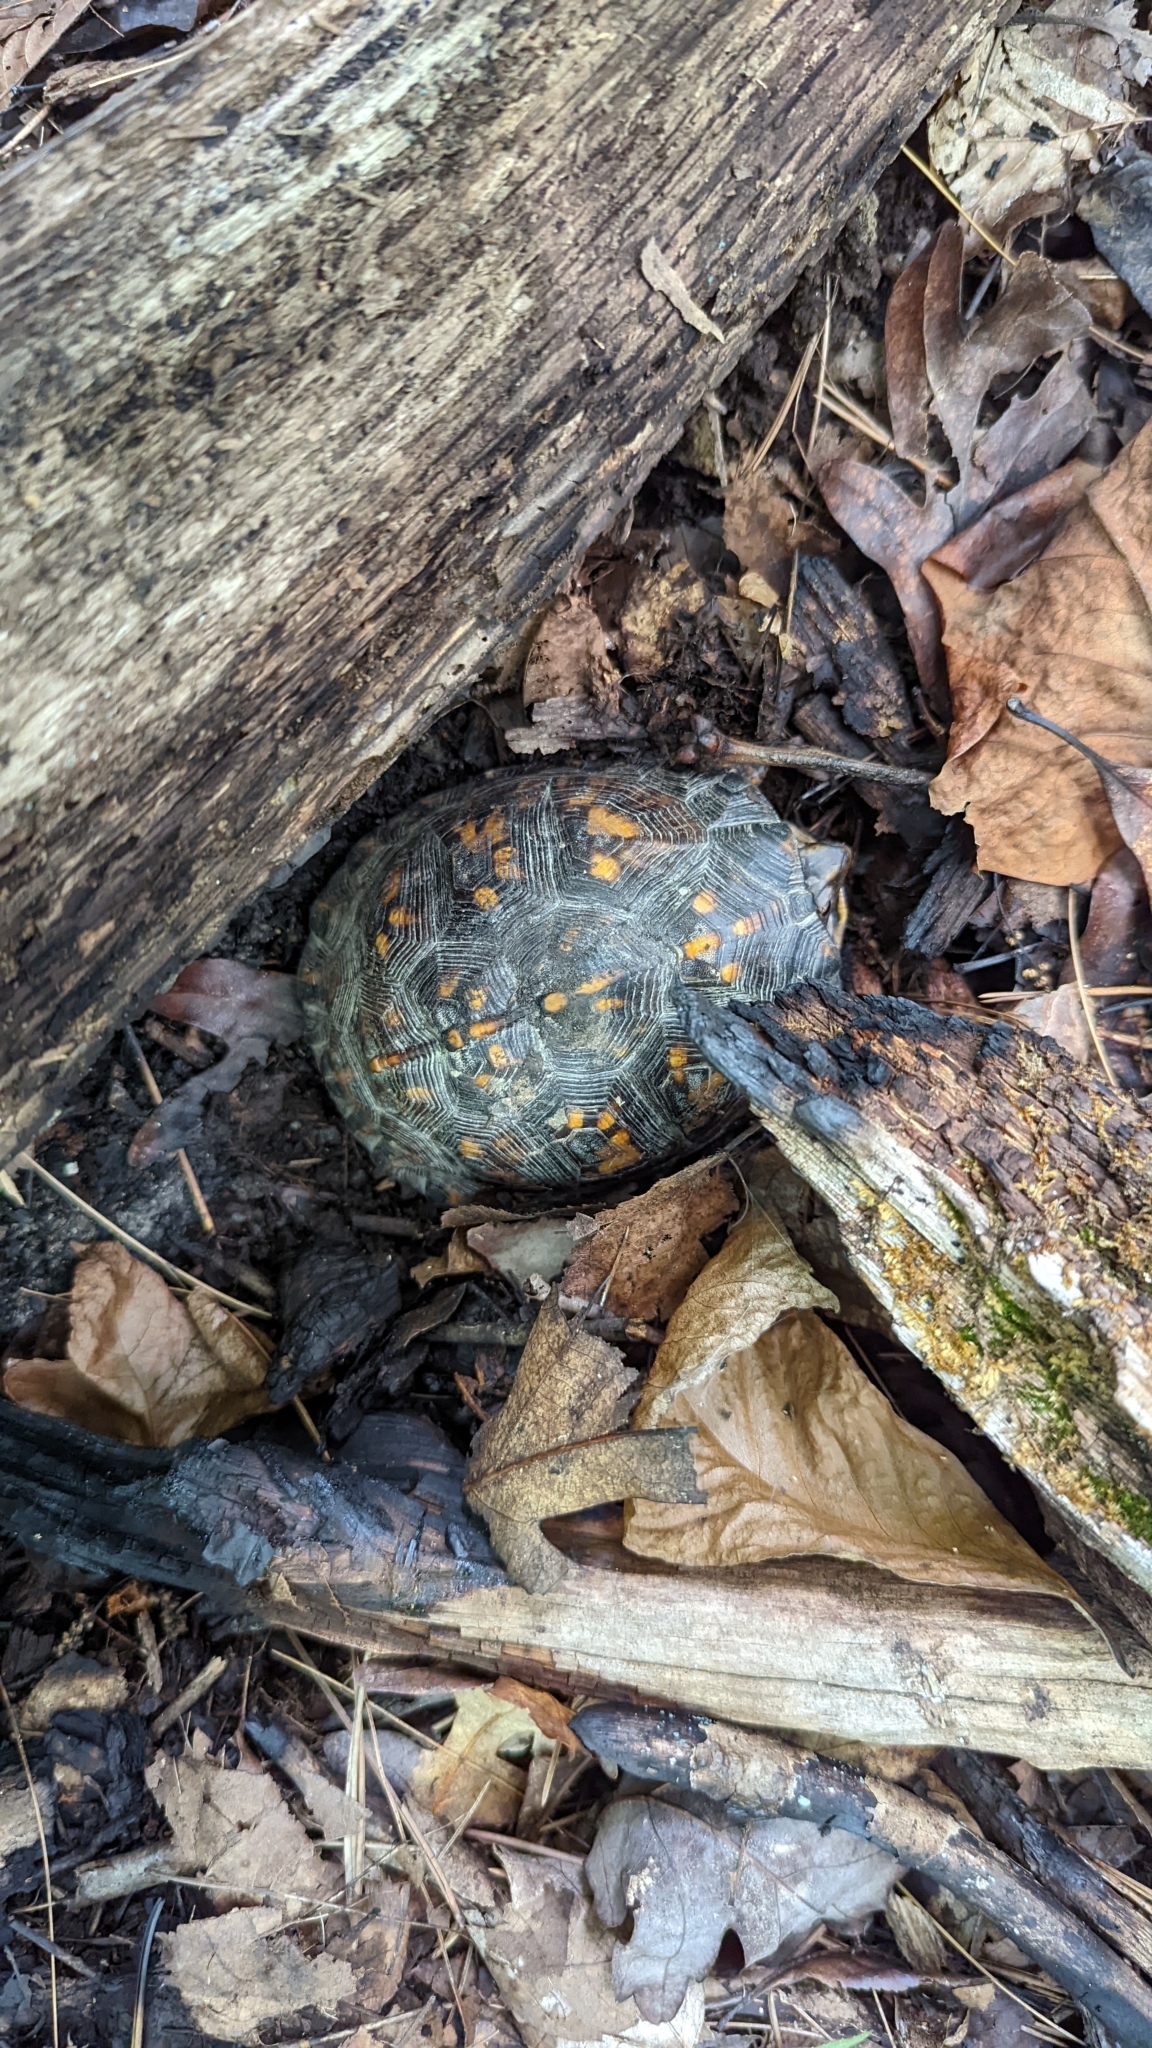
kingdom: Animalia
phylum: Chordata
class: Testudines
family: Emydidae
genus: Terrapene
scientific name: Terrapene carolina
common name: Common box turtle
